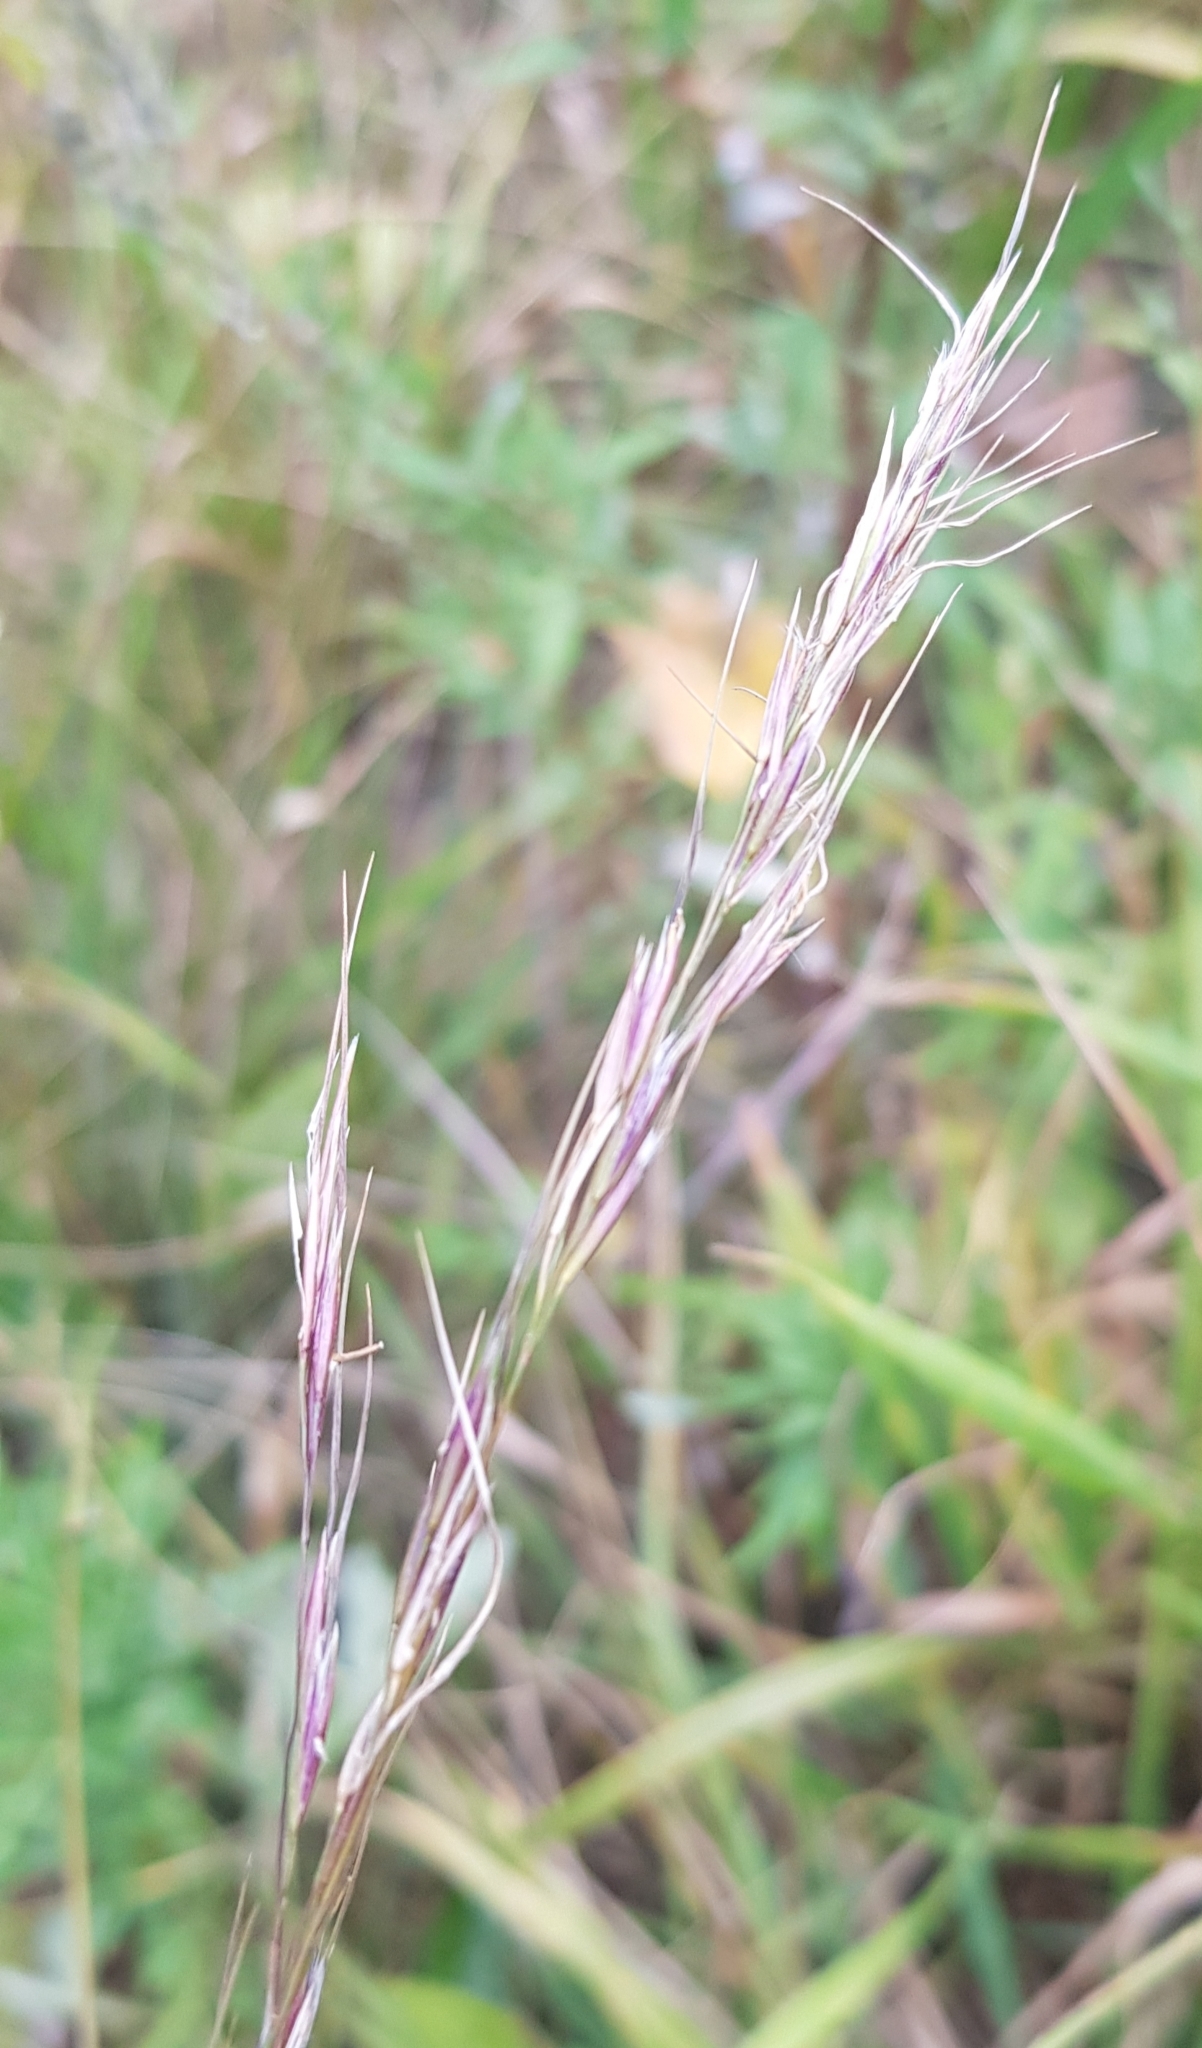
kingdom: Plantae
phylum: Tracheophyta
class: Liliopsida
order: Poales
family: Poaceae
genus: Achnatherum
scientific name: Achnatherum sibiricum
